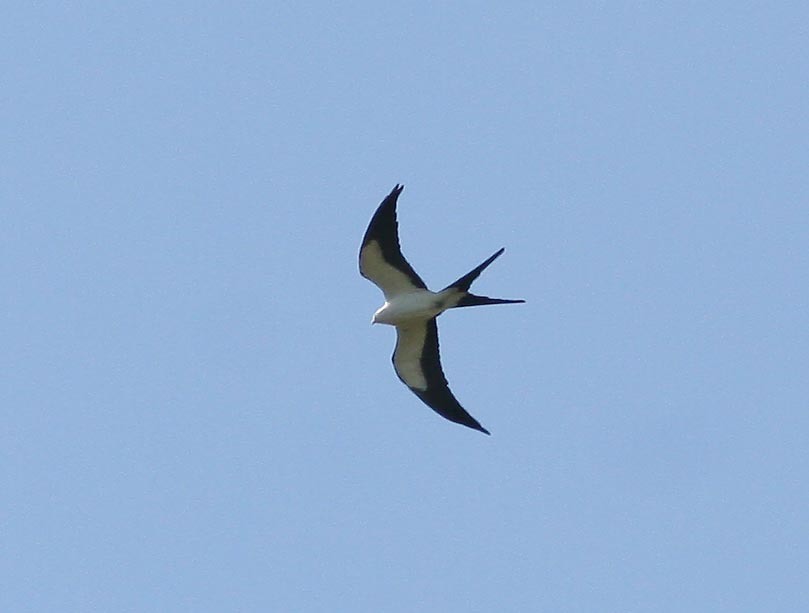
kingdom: Animalia
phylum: Chordata
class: Aves
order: Accipitriformes
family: Accipitridae
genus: Elanoides
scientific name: Elanoides forficatus
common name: Swallow-tailed kite
